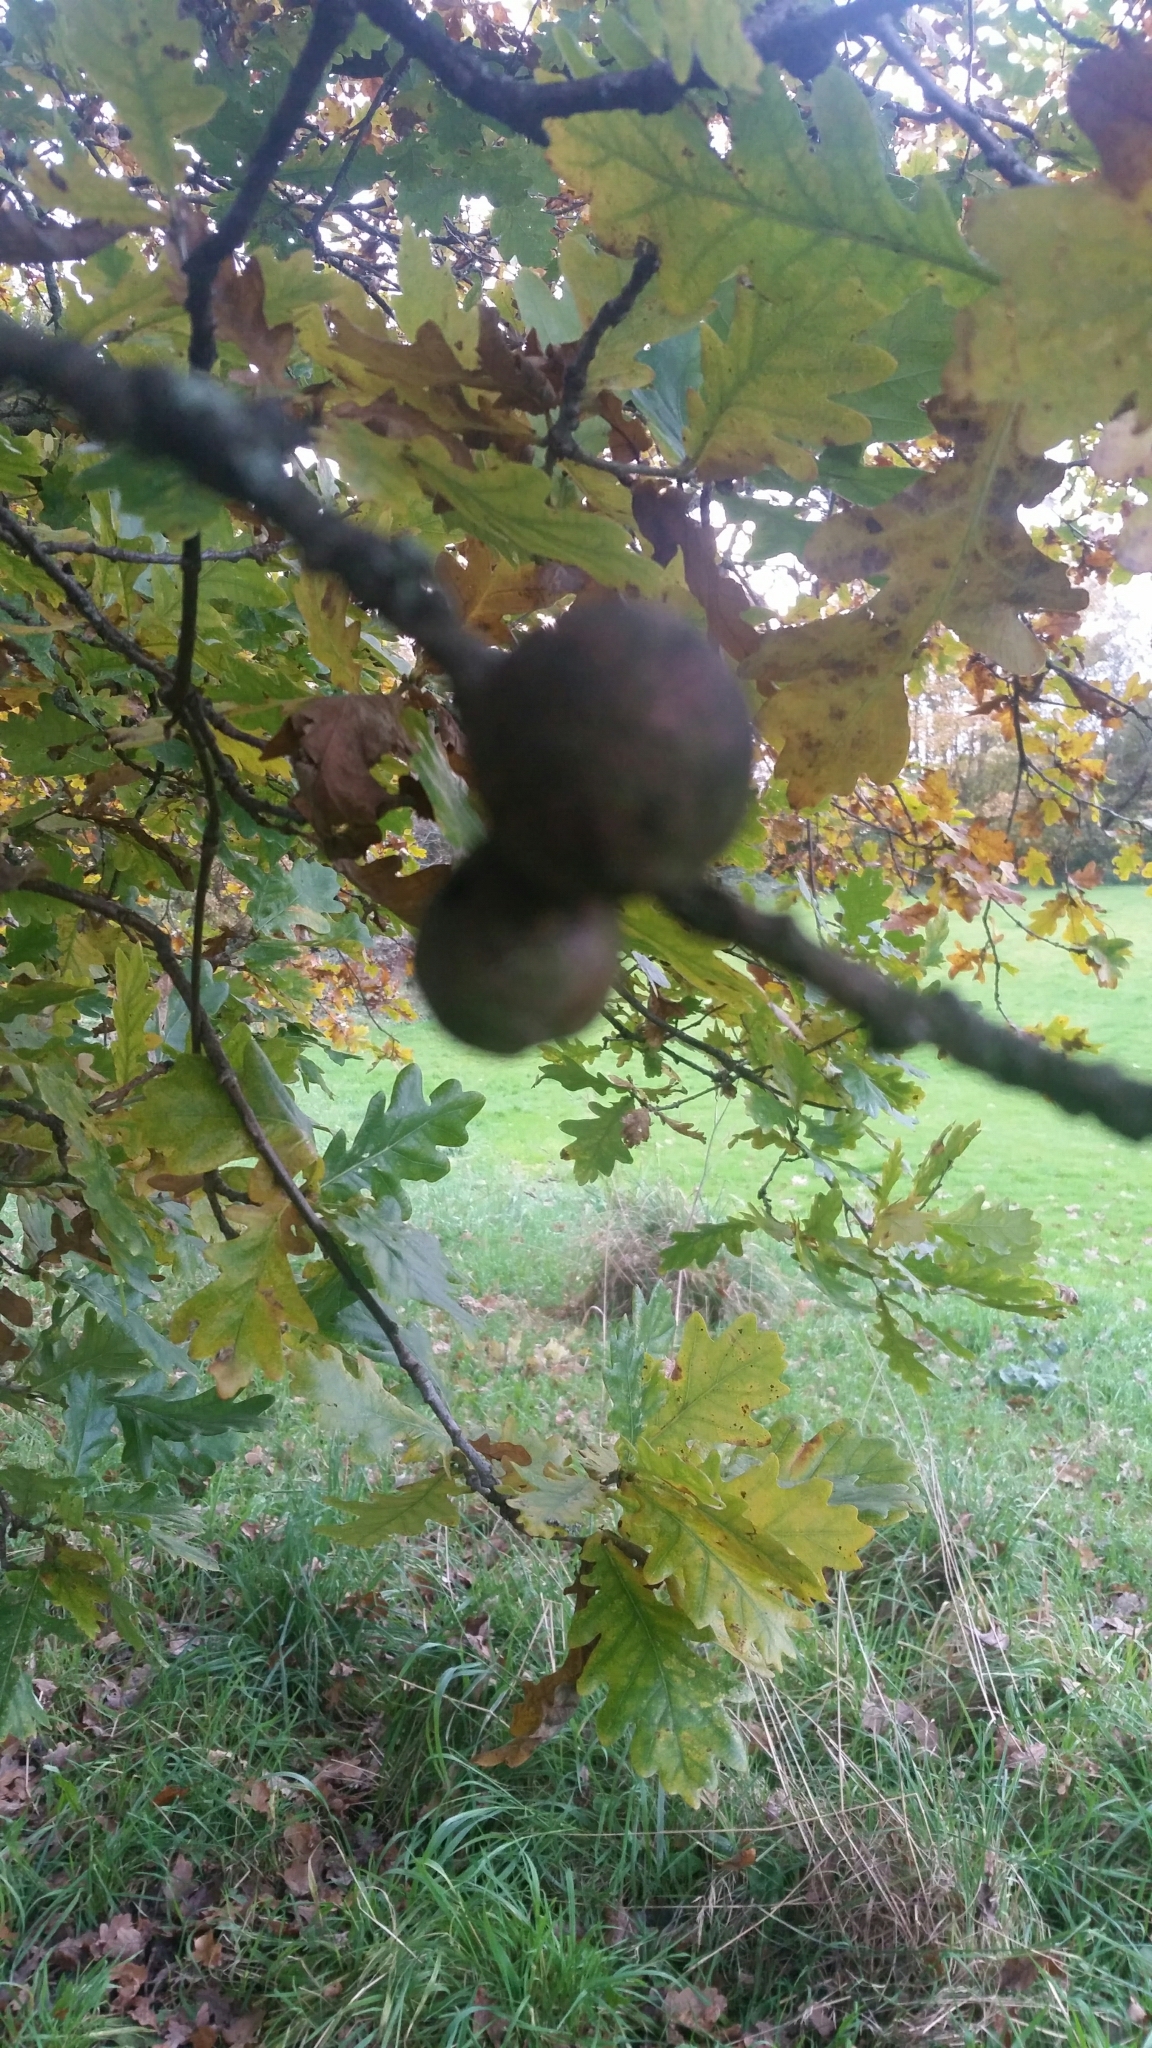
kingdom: Animalia
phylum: Arthropoda
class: Insecta
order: Hymenoptera
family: Cynipidae
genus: Andricus
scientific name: Andricus kollari
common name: Marble gall
